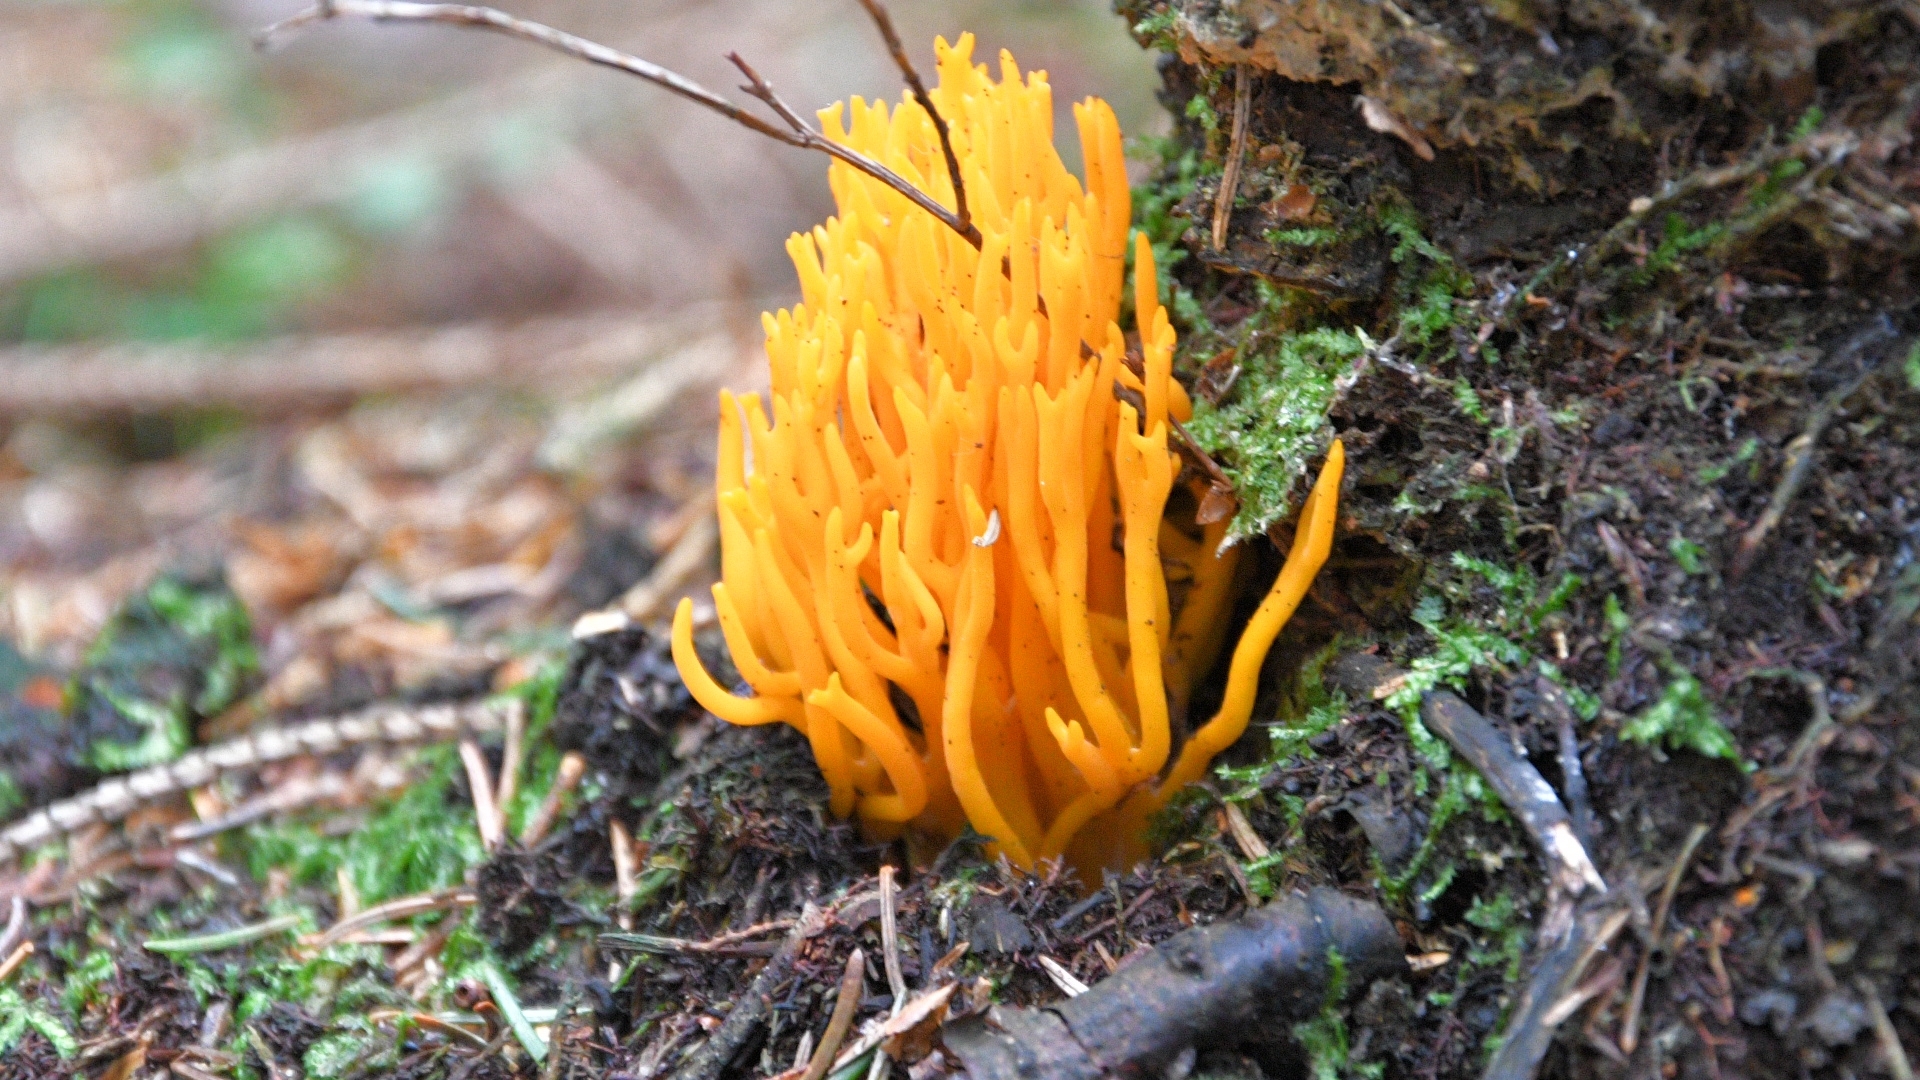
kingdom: Fungi
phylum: Basidiomycota
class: Dacrymycetes
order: Dacrymycetales
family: Dacrymycetaceae
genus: Calocera
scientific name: Calocera viscosa
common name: Yellow stagshorn
